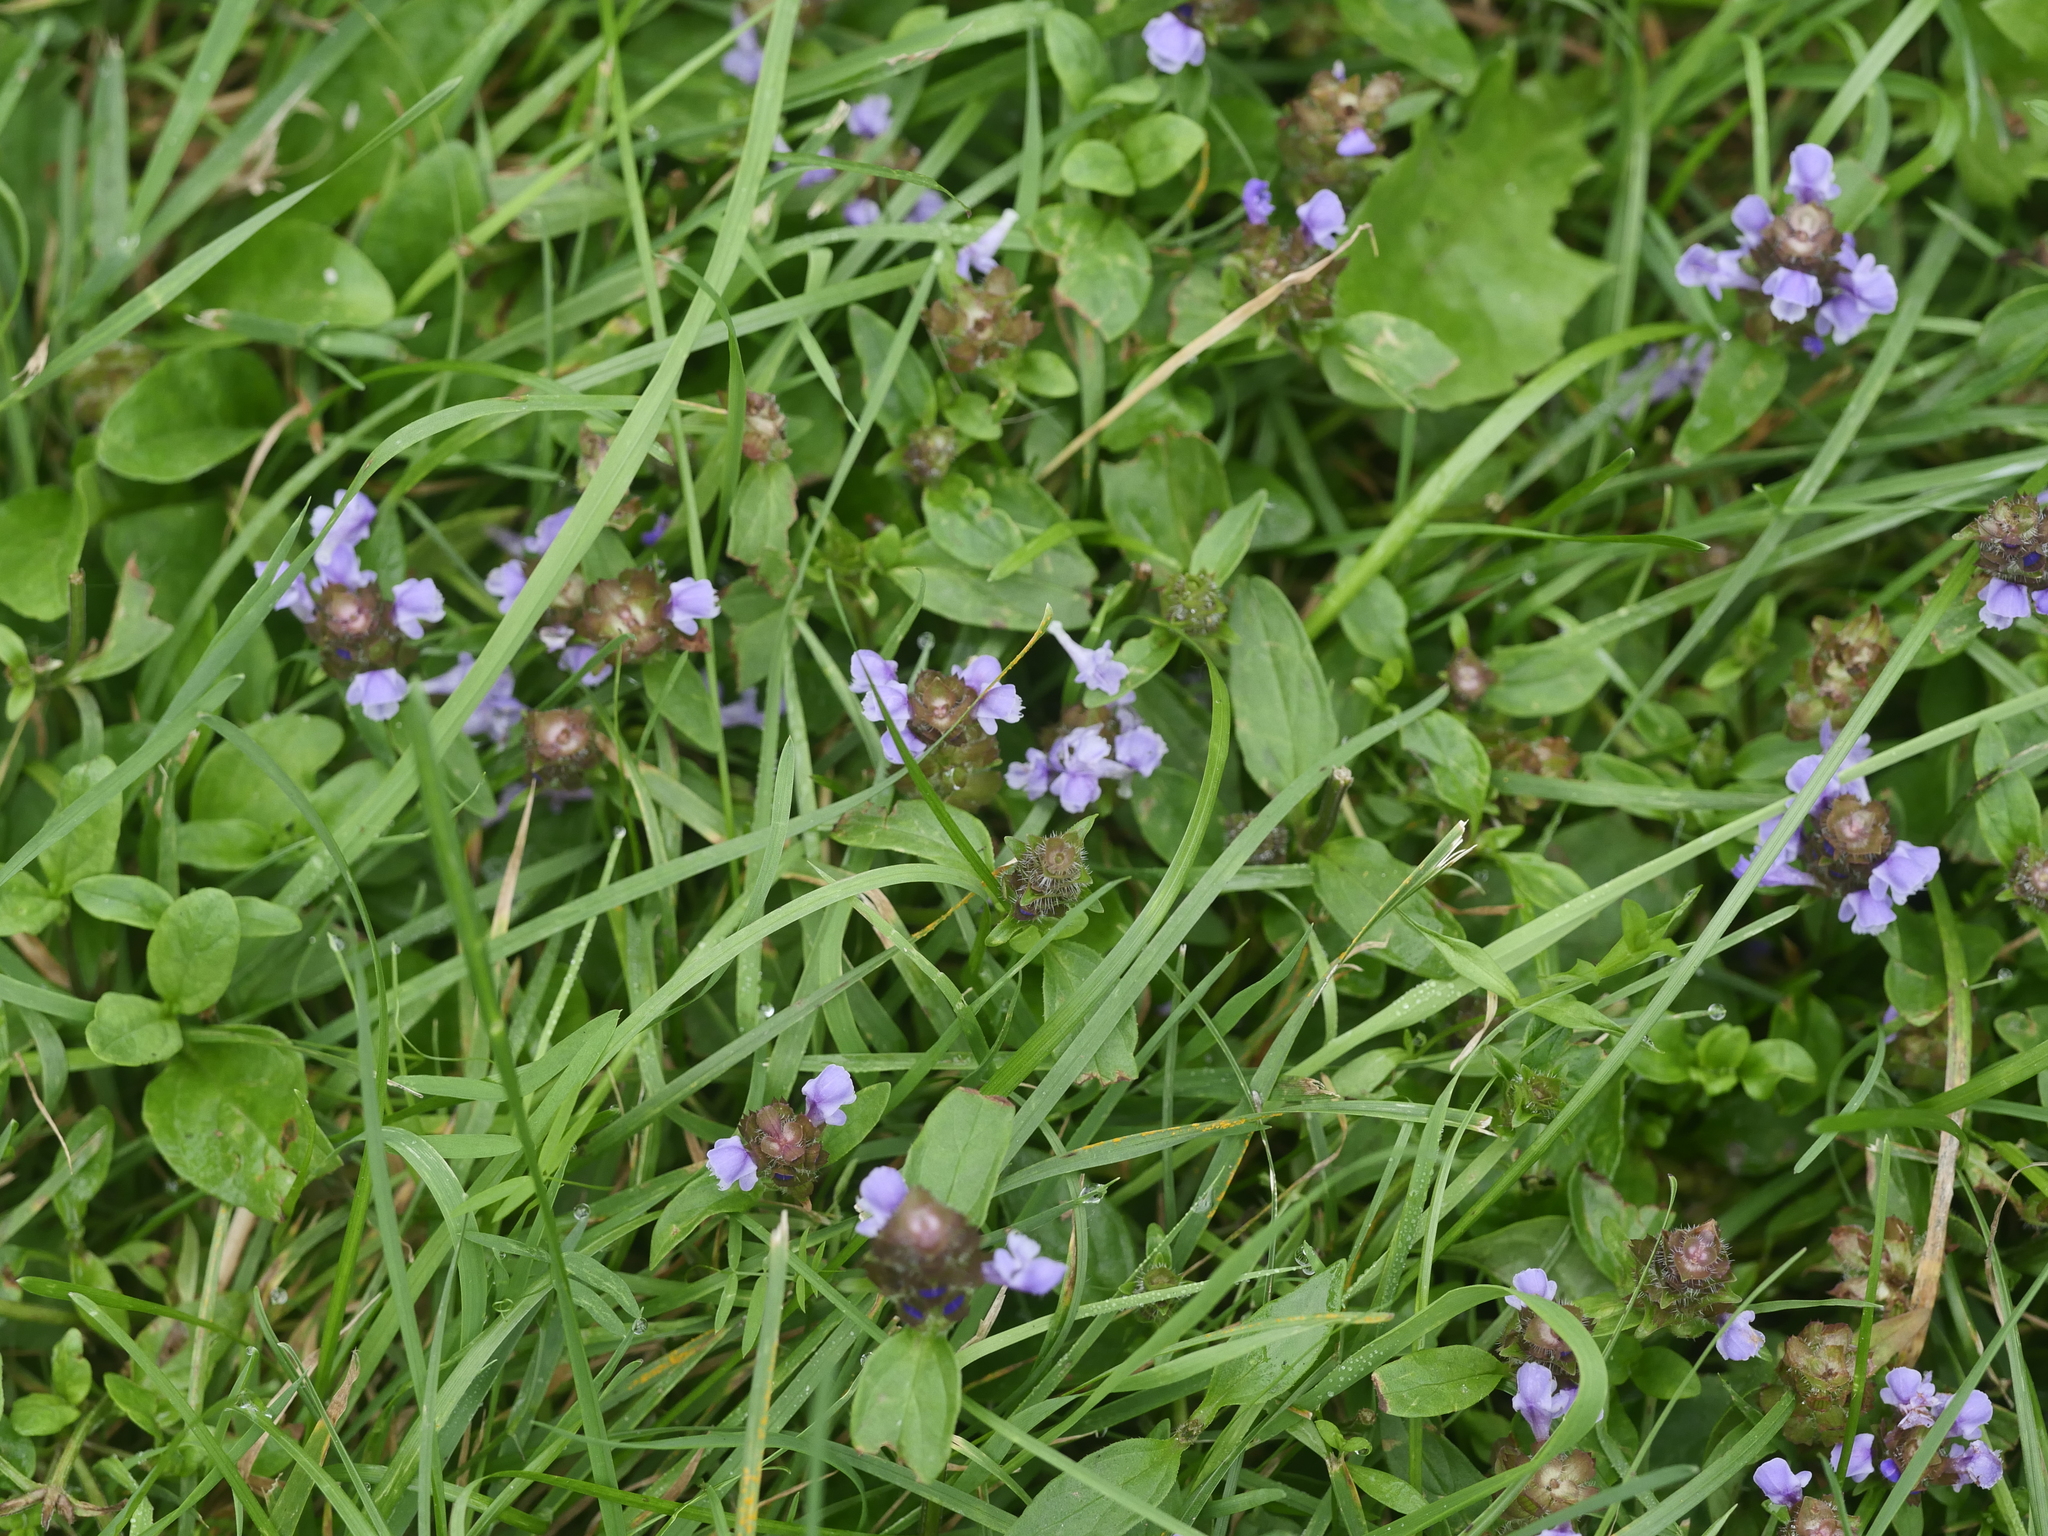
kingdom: Plantae
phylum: Tracheophyta
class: Magnoliopsida
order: Lamiales
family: Lamiaceae
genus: Prunella
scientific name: Prunella vulgaris
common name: Heal-all
